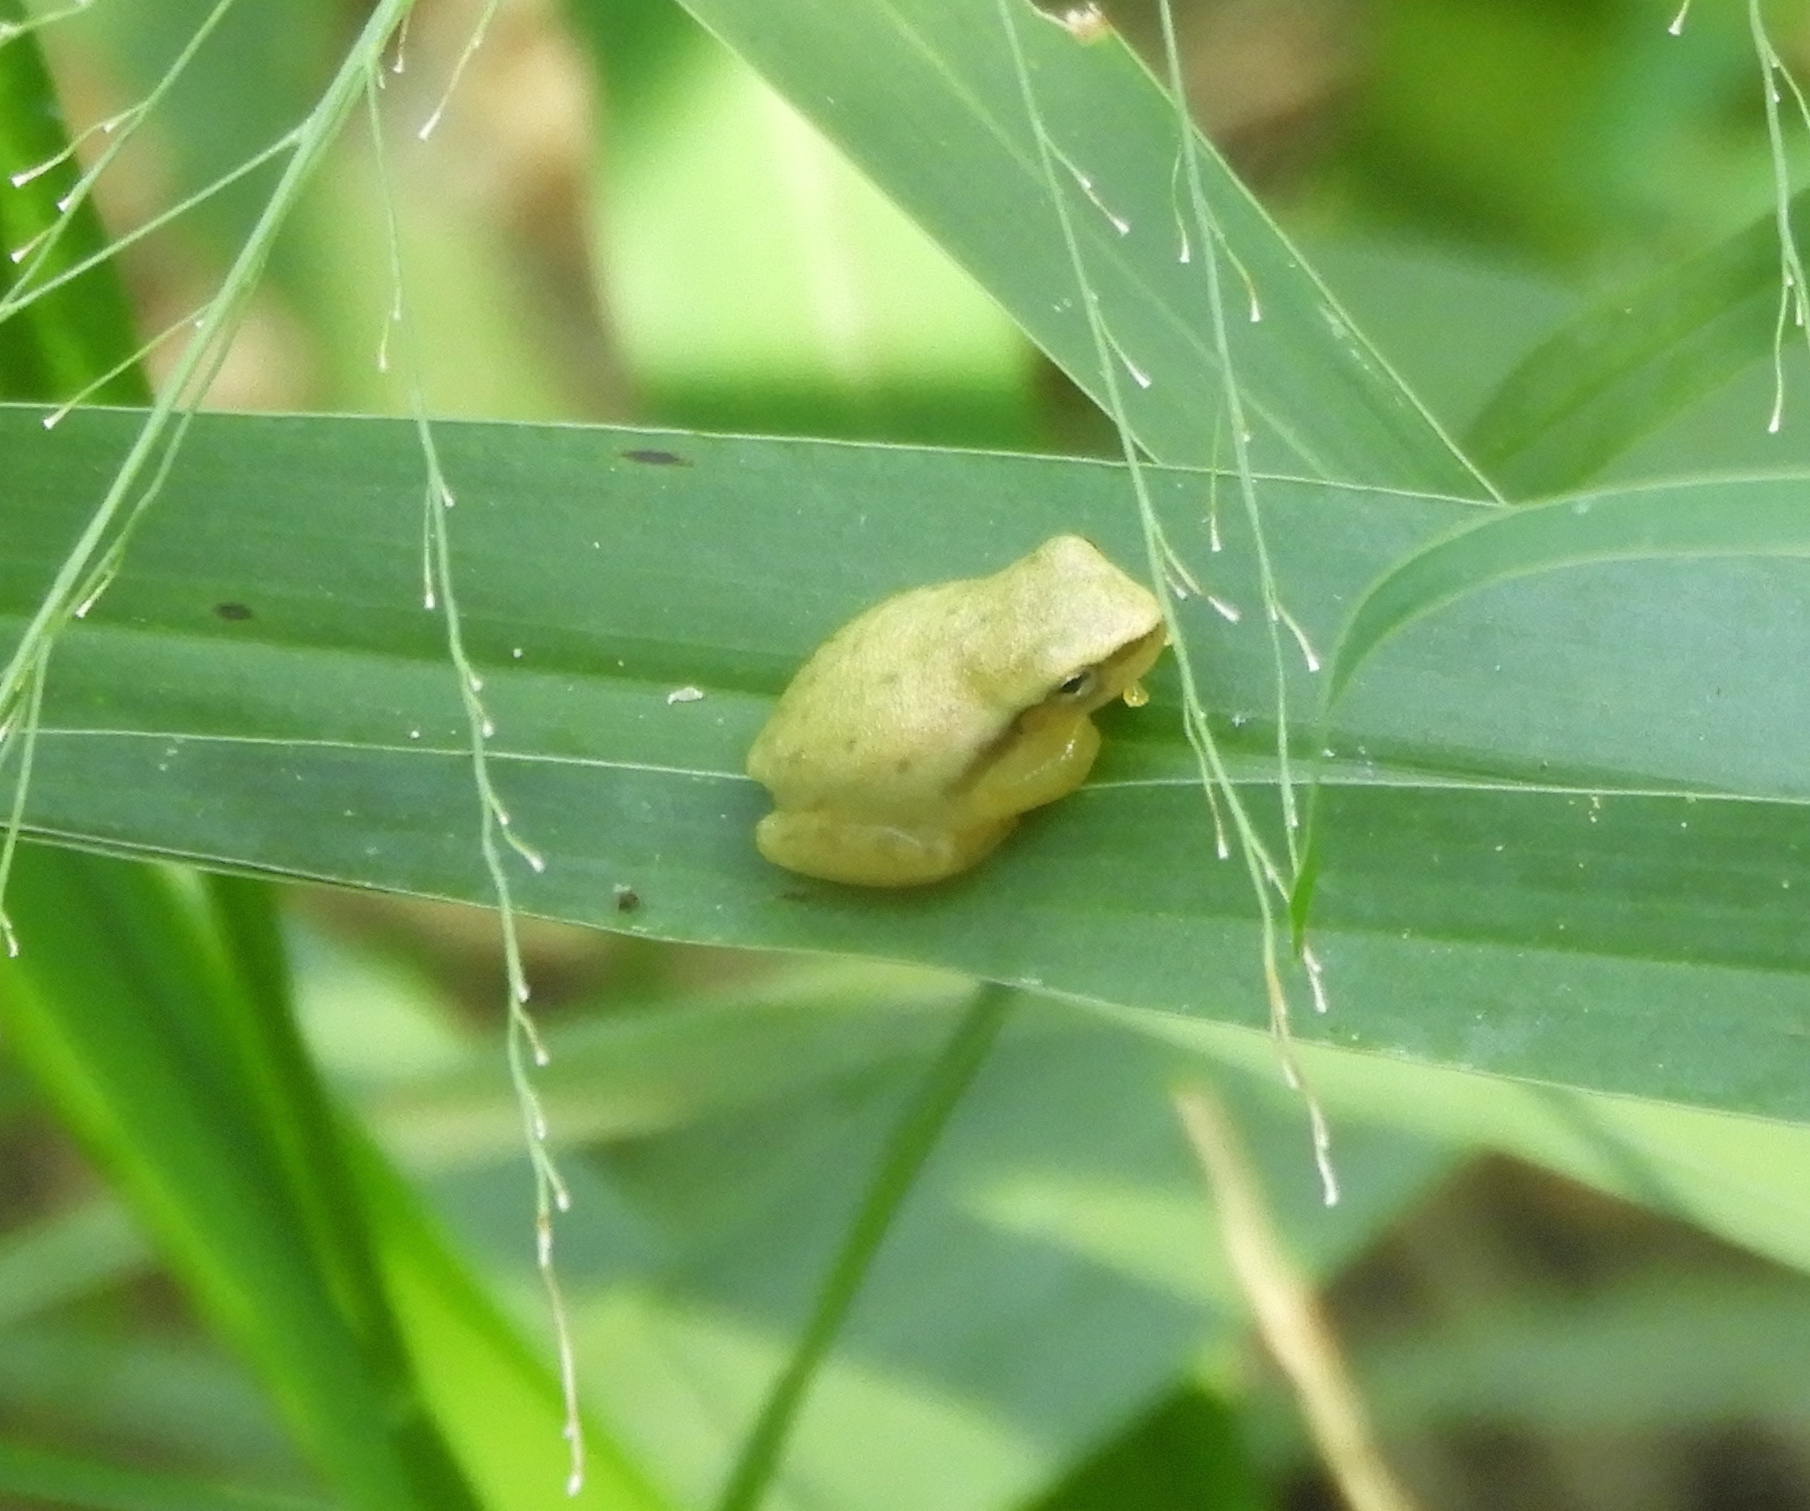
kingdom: Animalia
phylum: Chordata
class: Amphibia
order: Anura
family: Hylidae
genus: Tlalocohyla
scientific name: Tlalocohyla smithii
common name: Dwarf mexican treefrog
